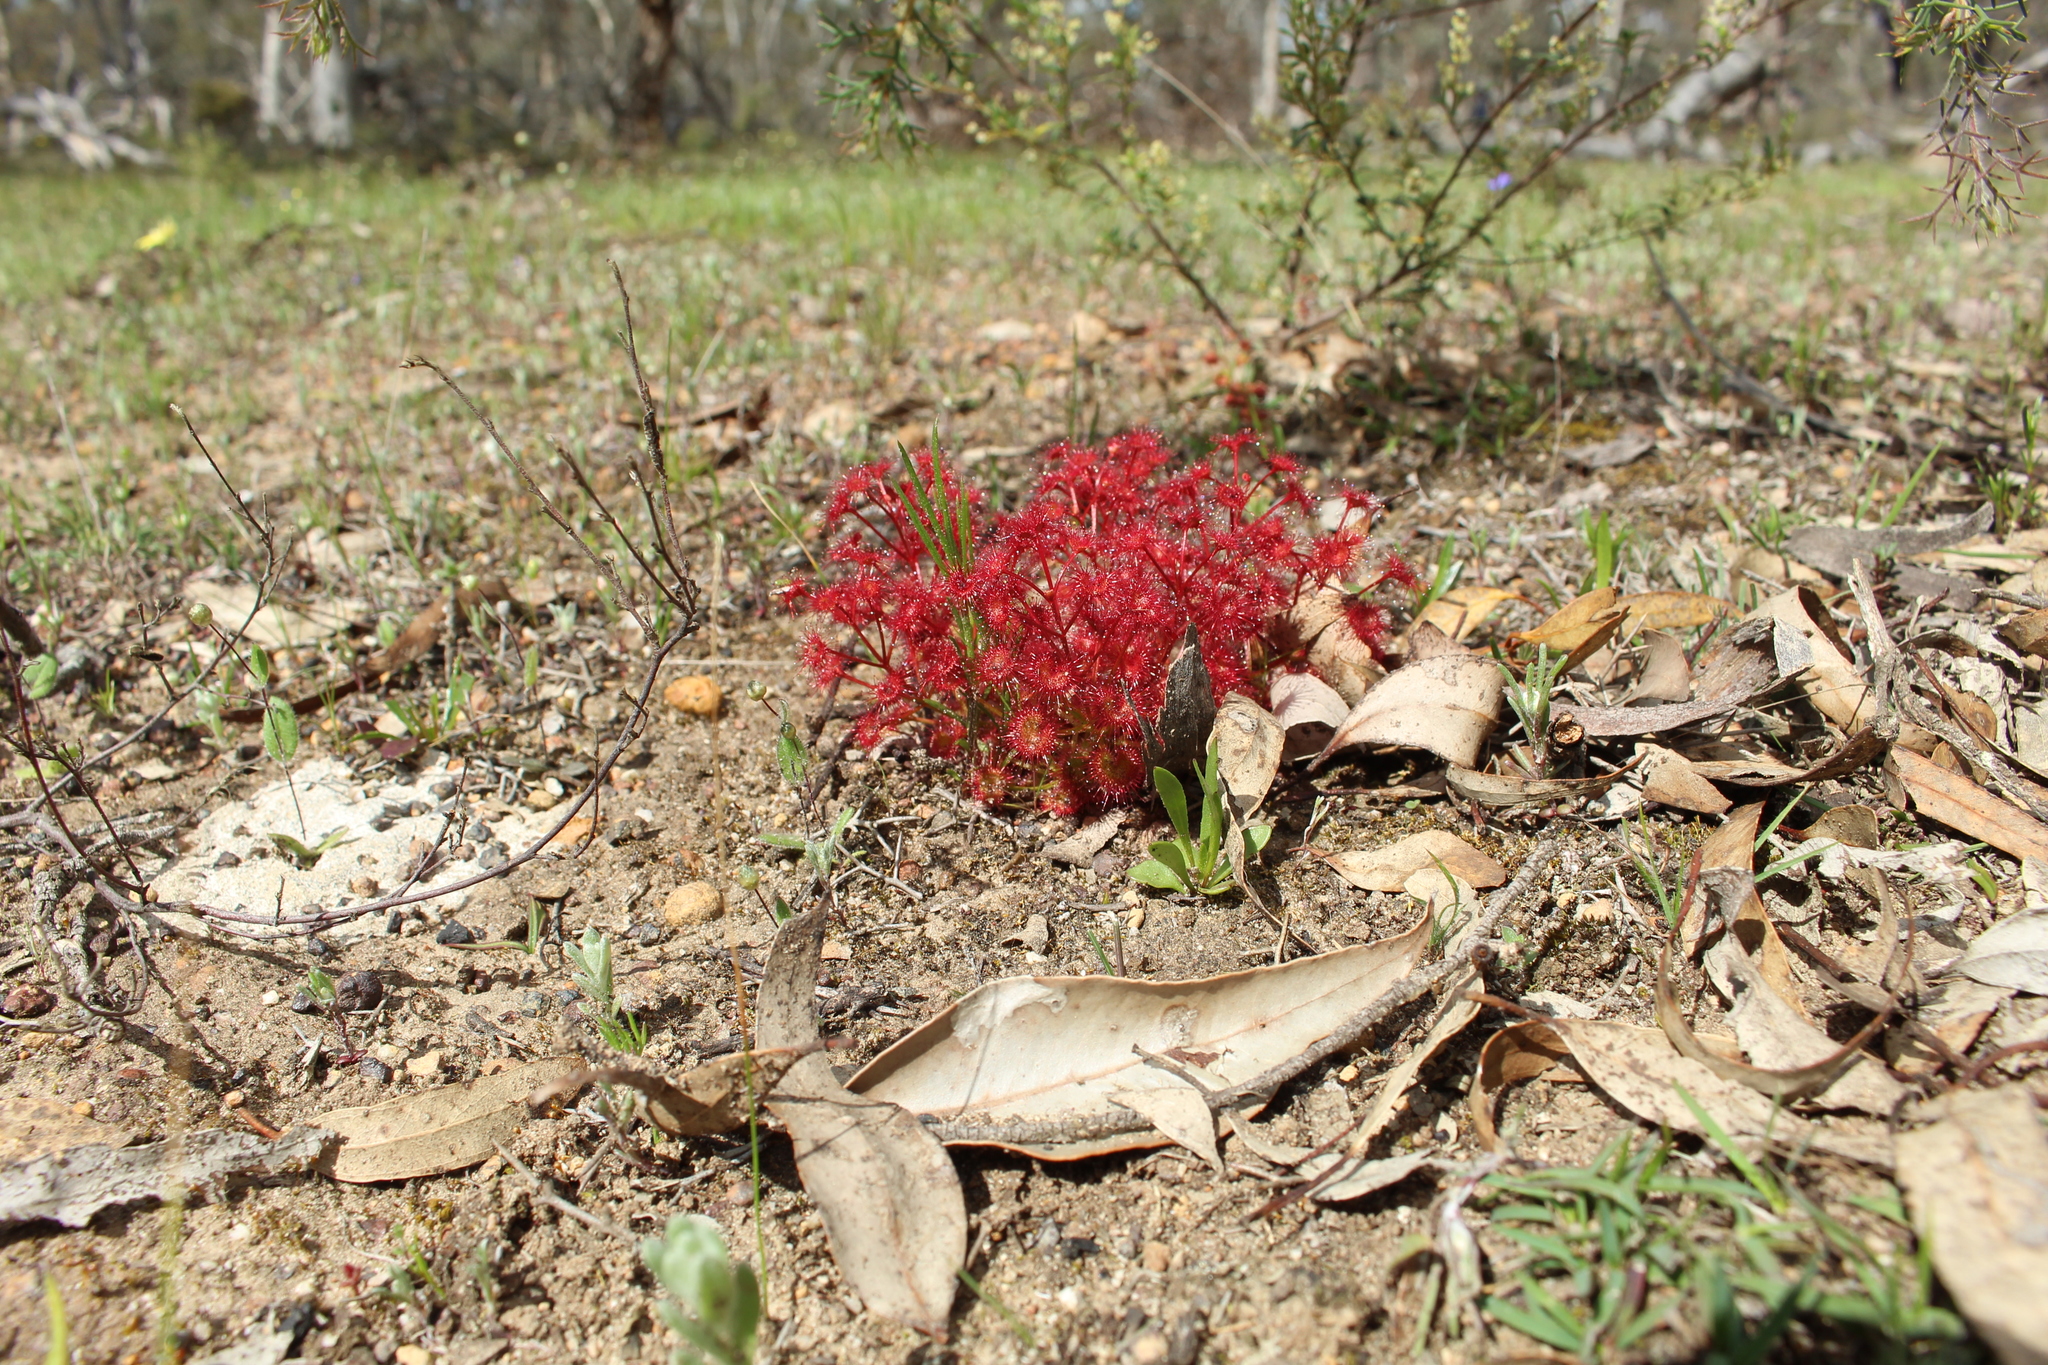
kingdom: Plantae
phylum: Tracheophyta
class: Magnoliopsida
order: Caryophyllales
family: Droseraceae
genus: Drosera
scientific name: Drosera stolonifera
